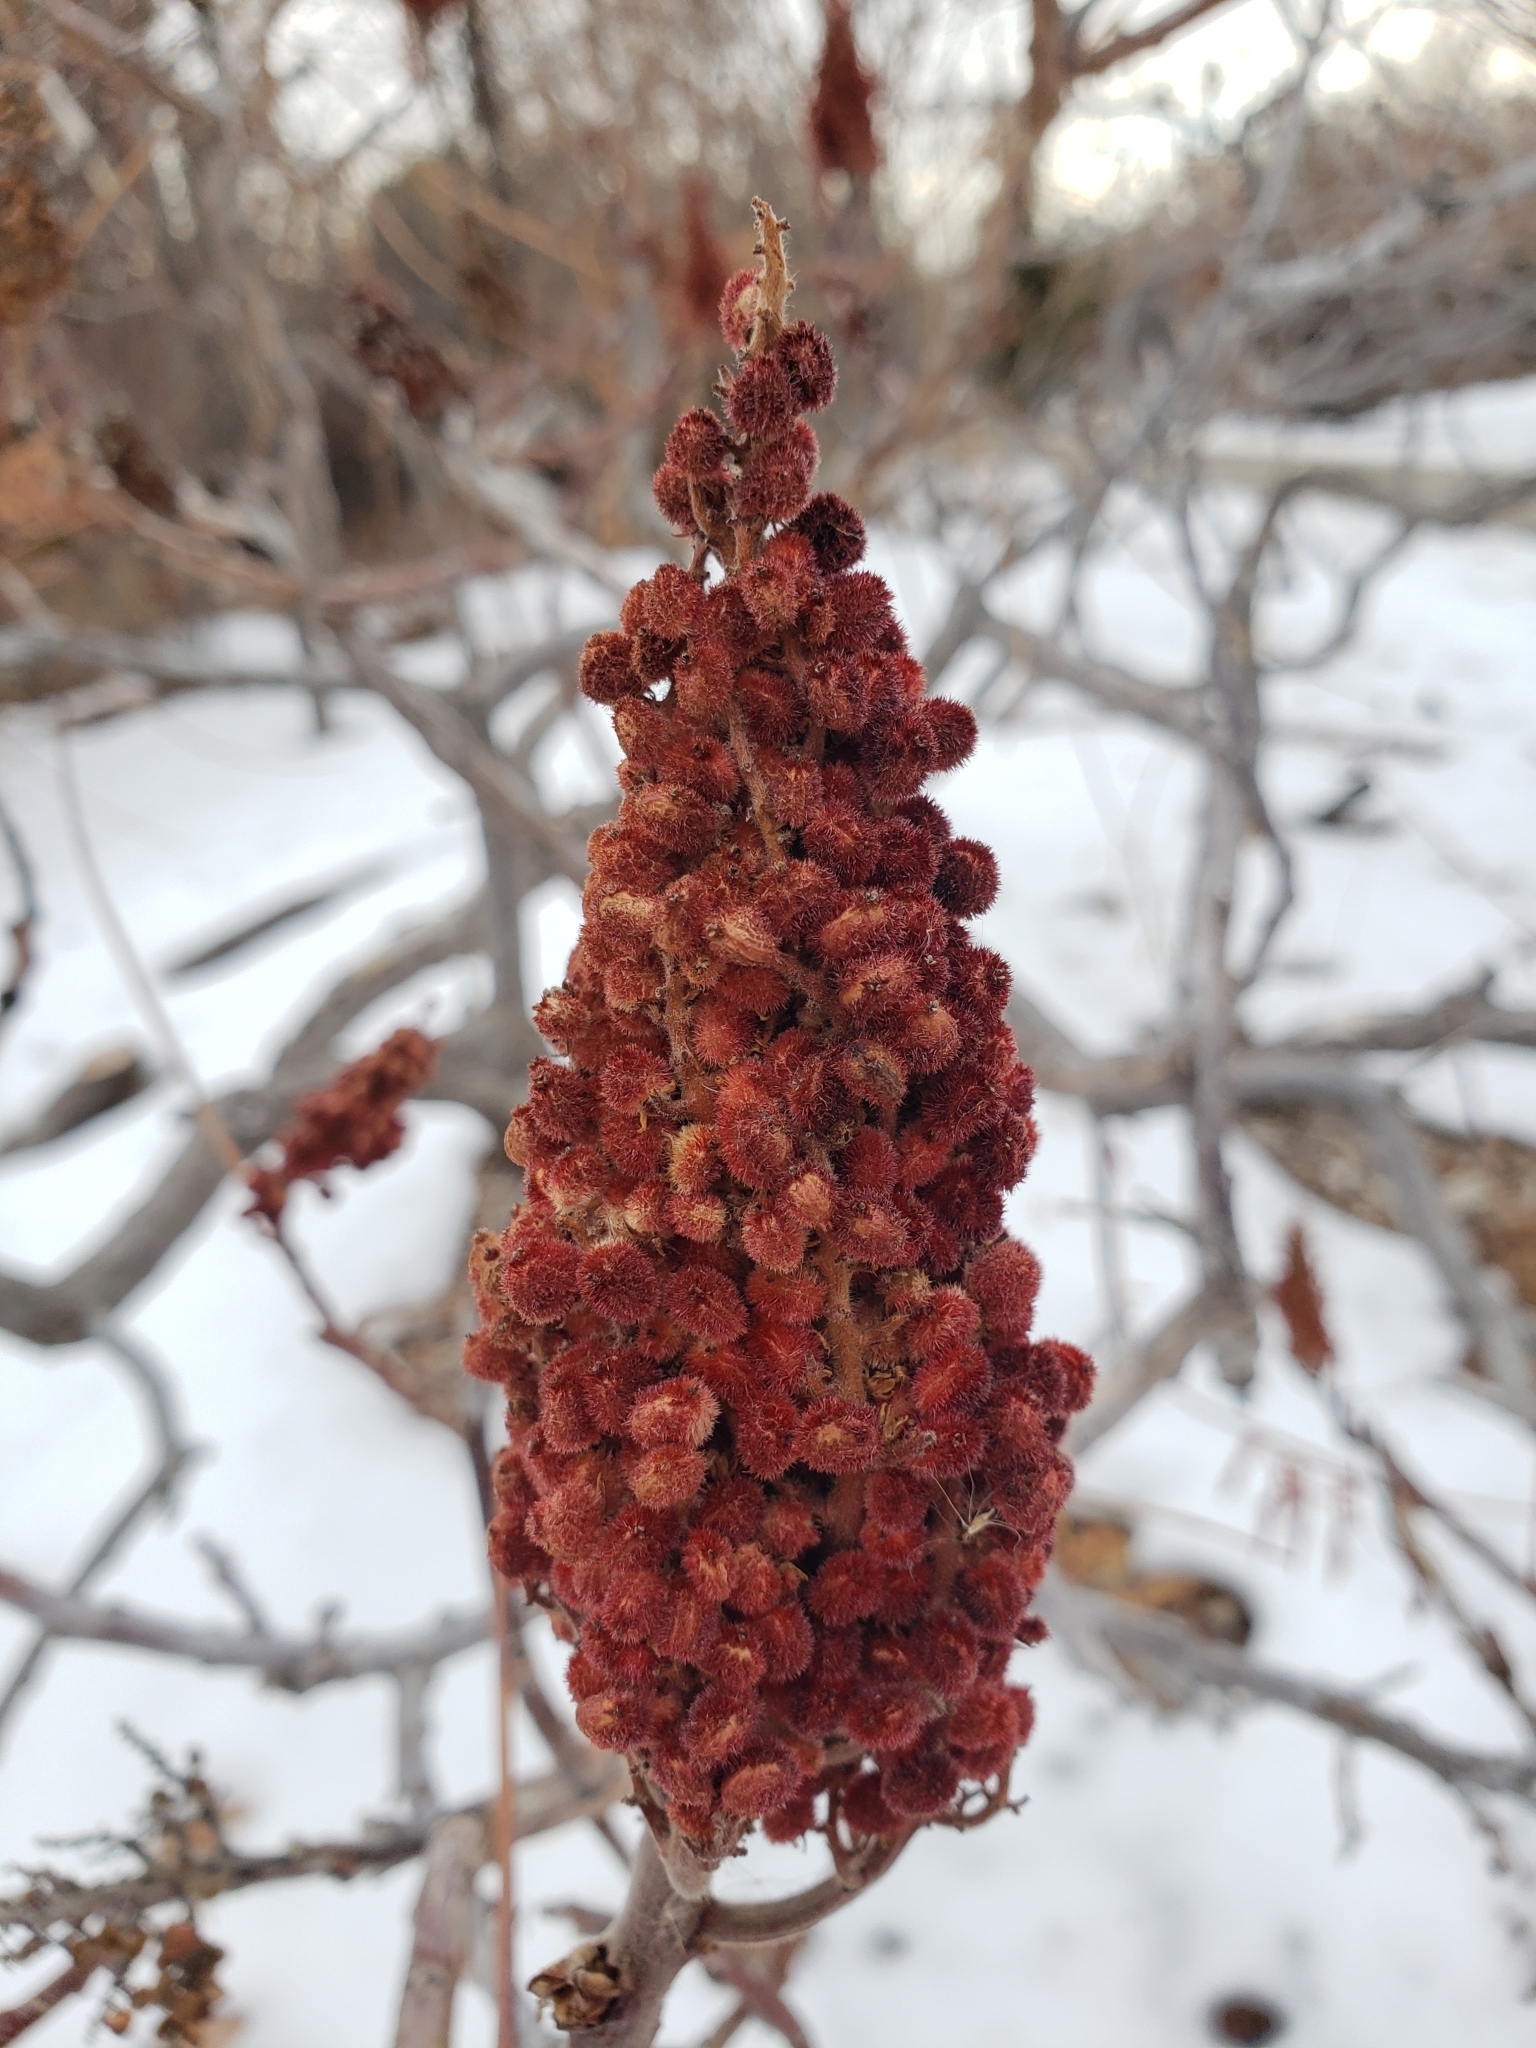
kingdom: Plantae
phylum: Tracheophyta
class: Magnoliopsida
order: Sapindales
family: Anacardiaceae
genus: Rhus
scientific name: Rhus typhina
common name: Staghorn sumac
